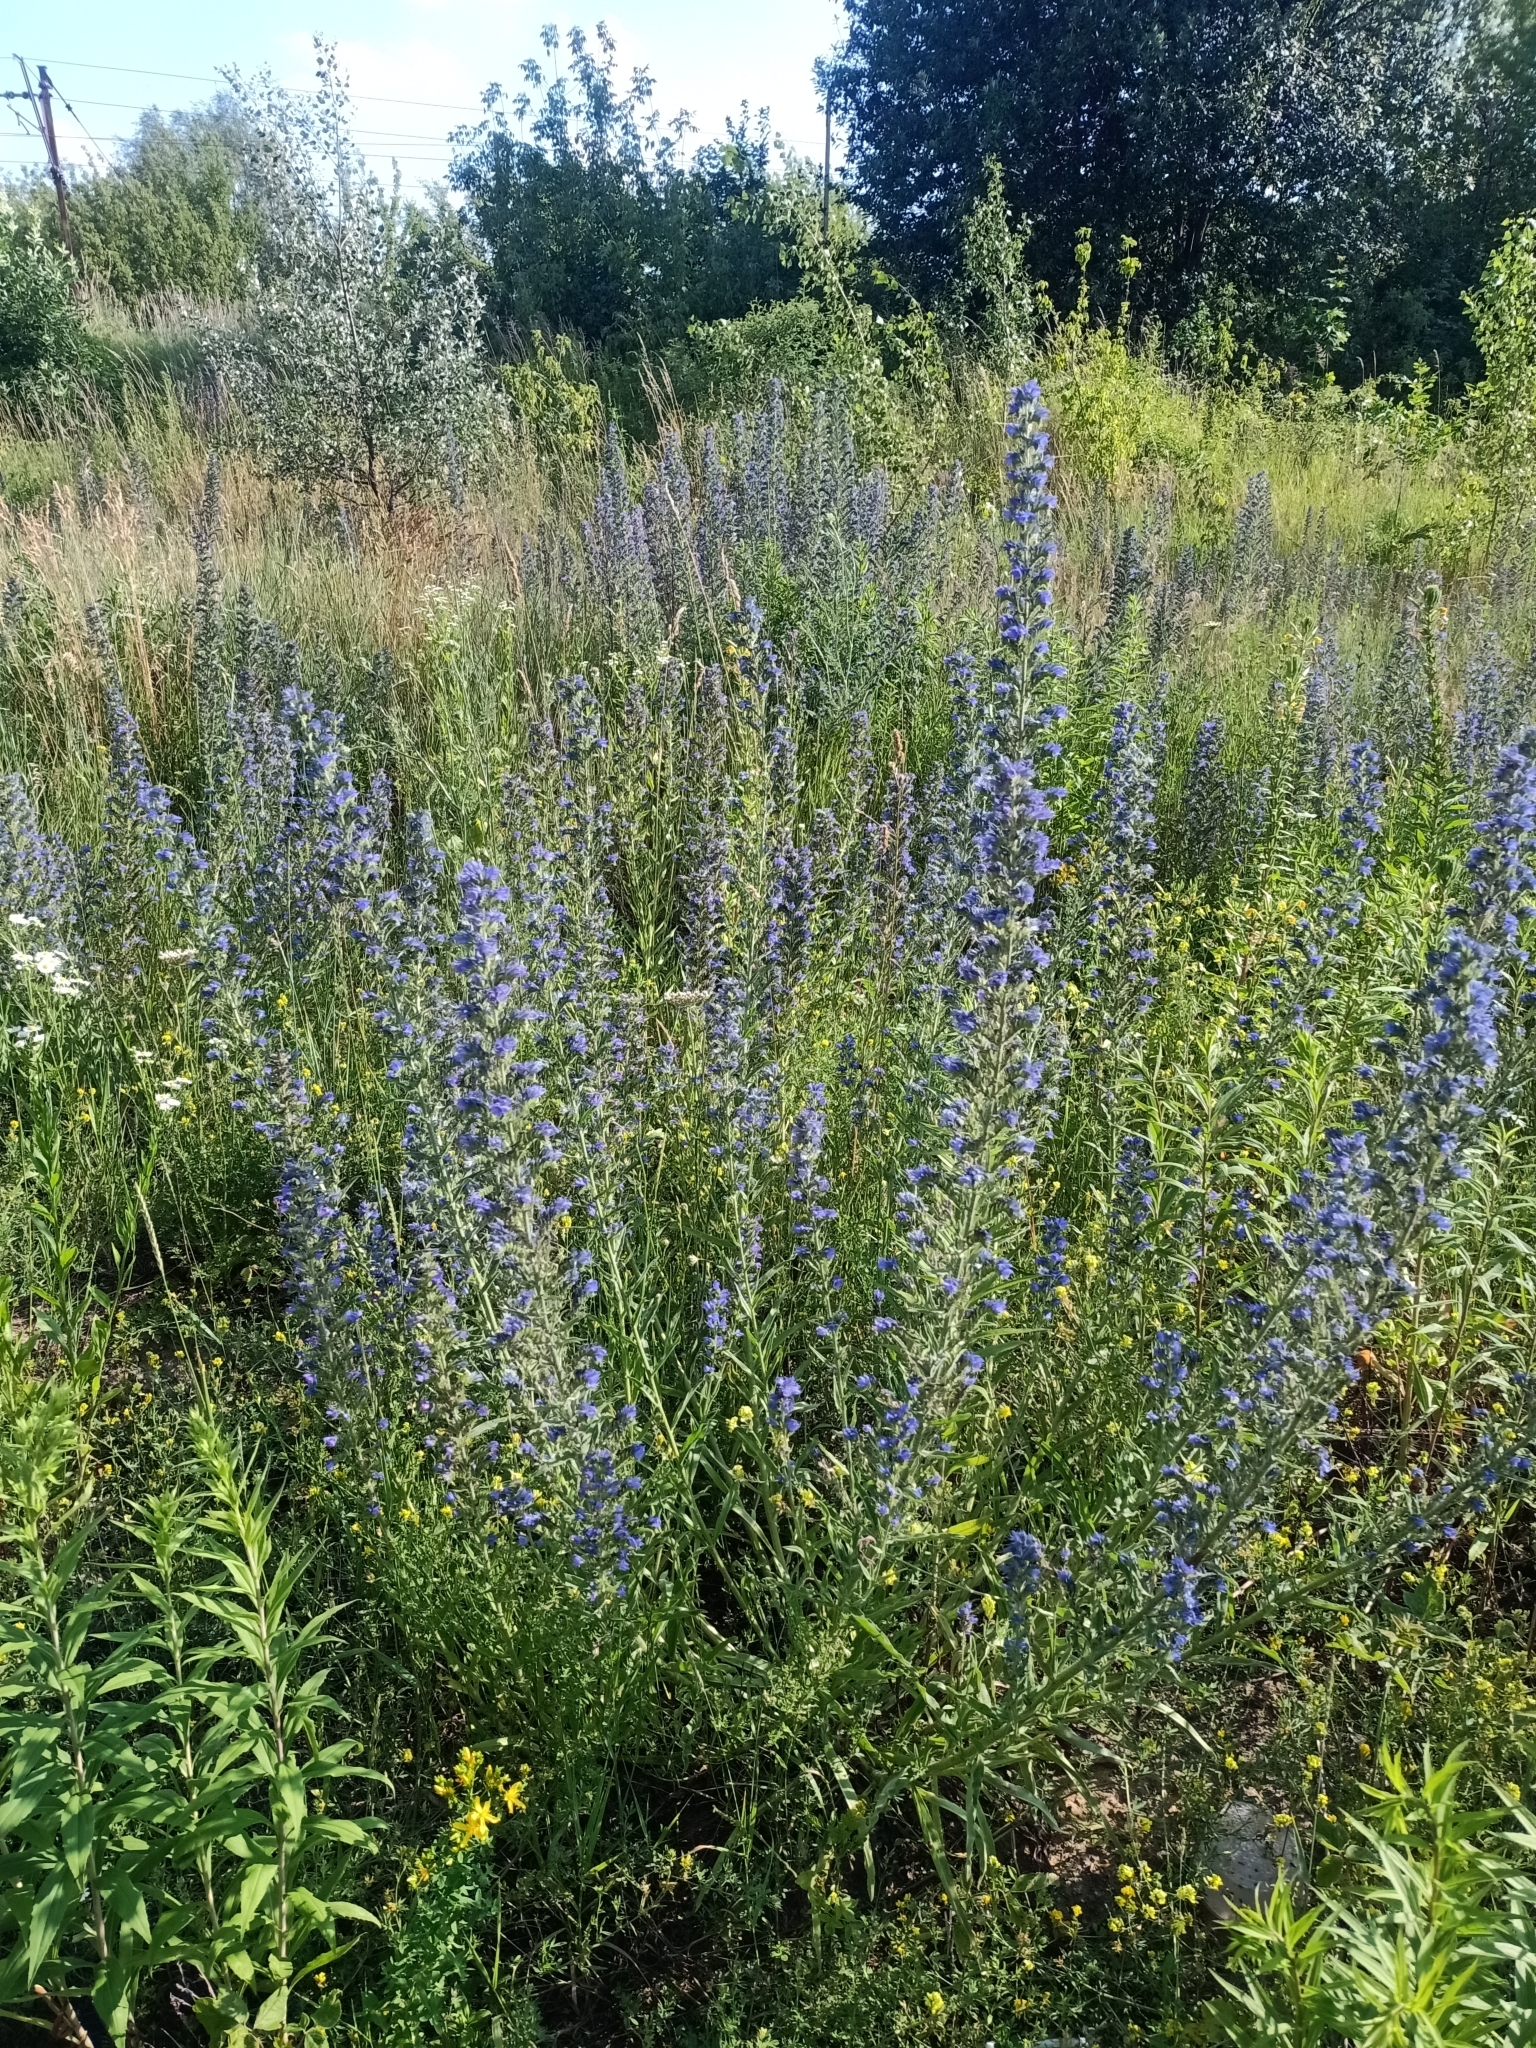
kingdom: Plantae
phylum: Tracheophyta
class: Magnoliopsida
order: Boraginales
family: Boraginaceae
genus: Echium
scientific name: Echium vulgare
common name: Common viper's bugloss
